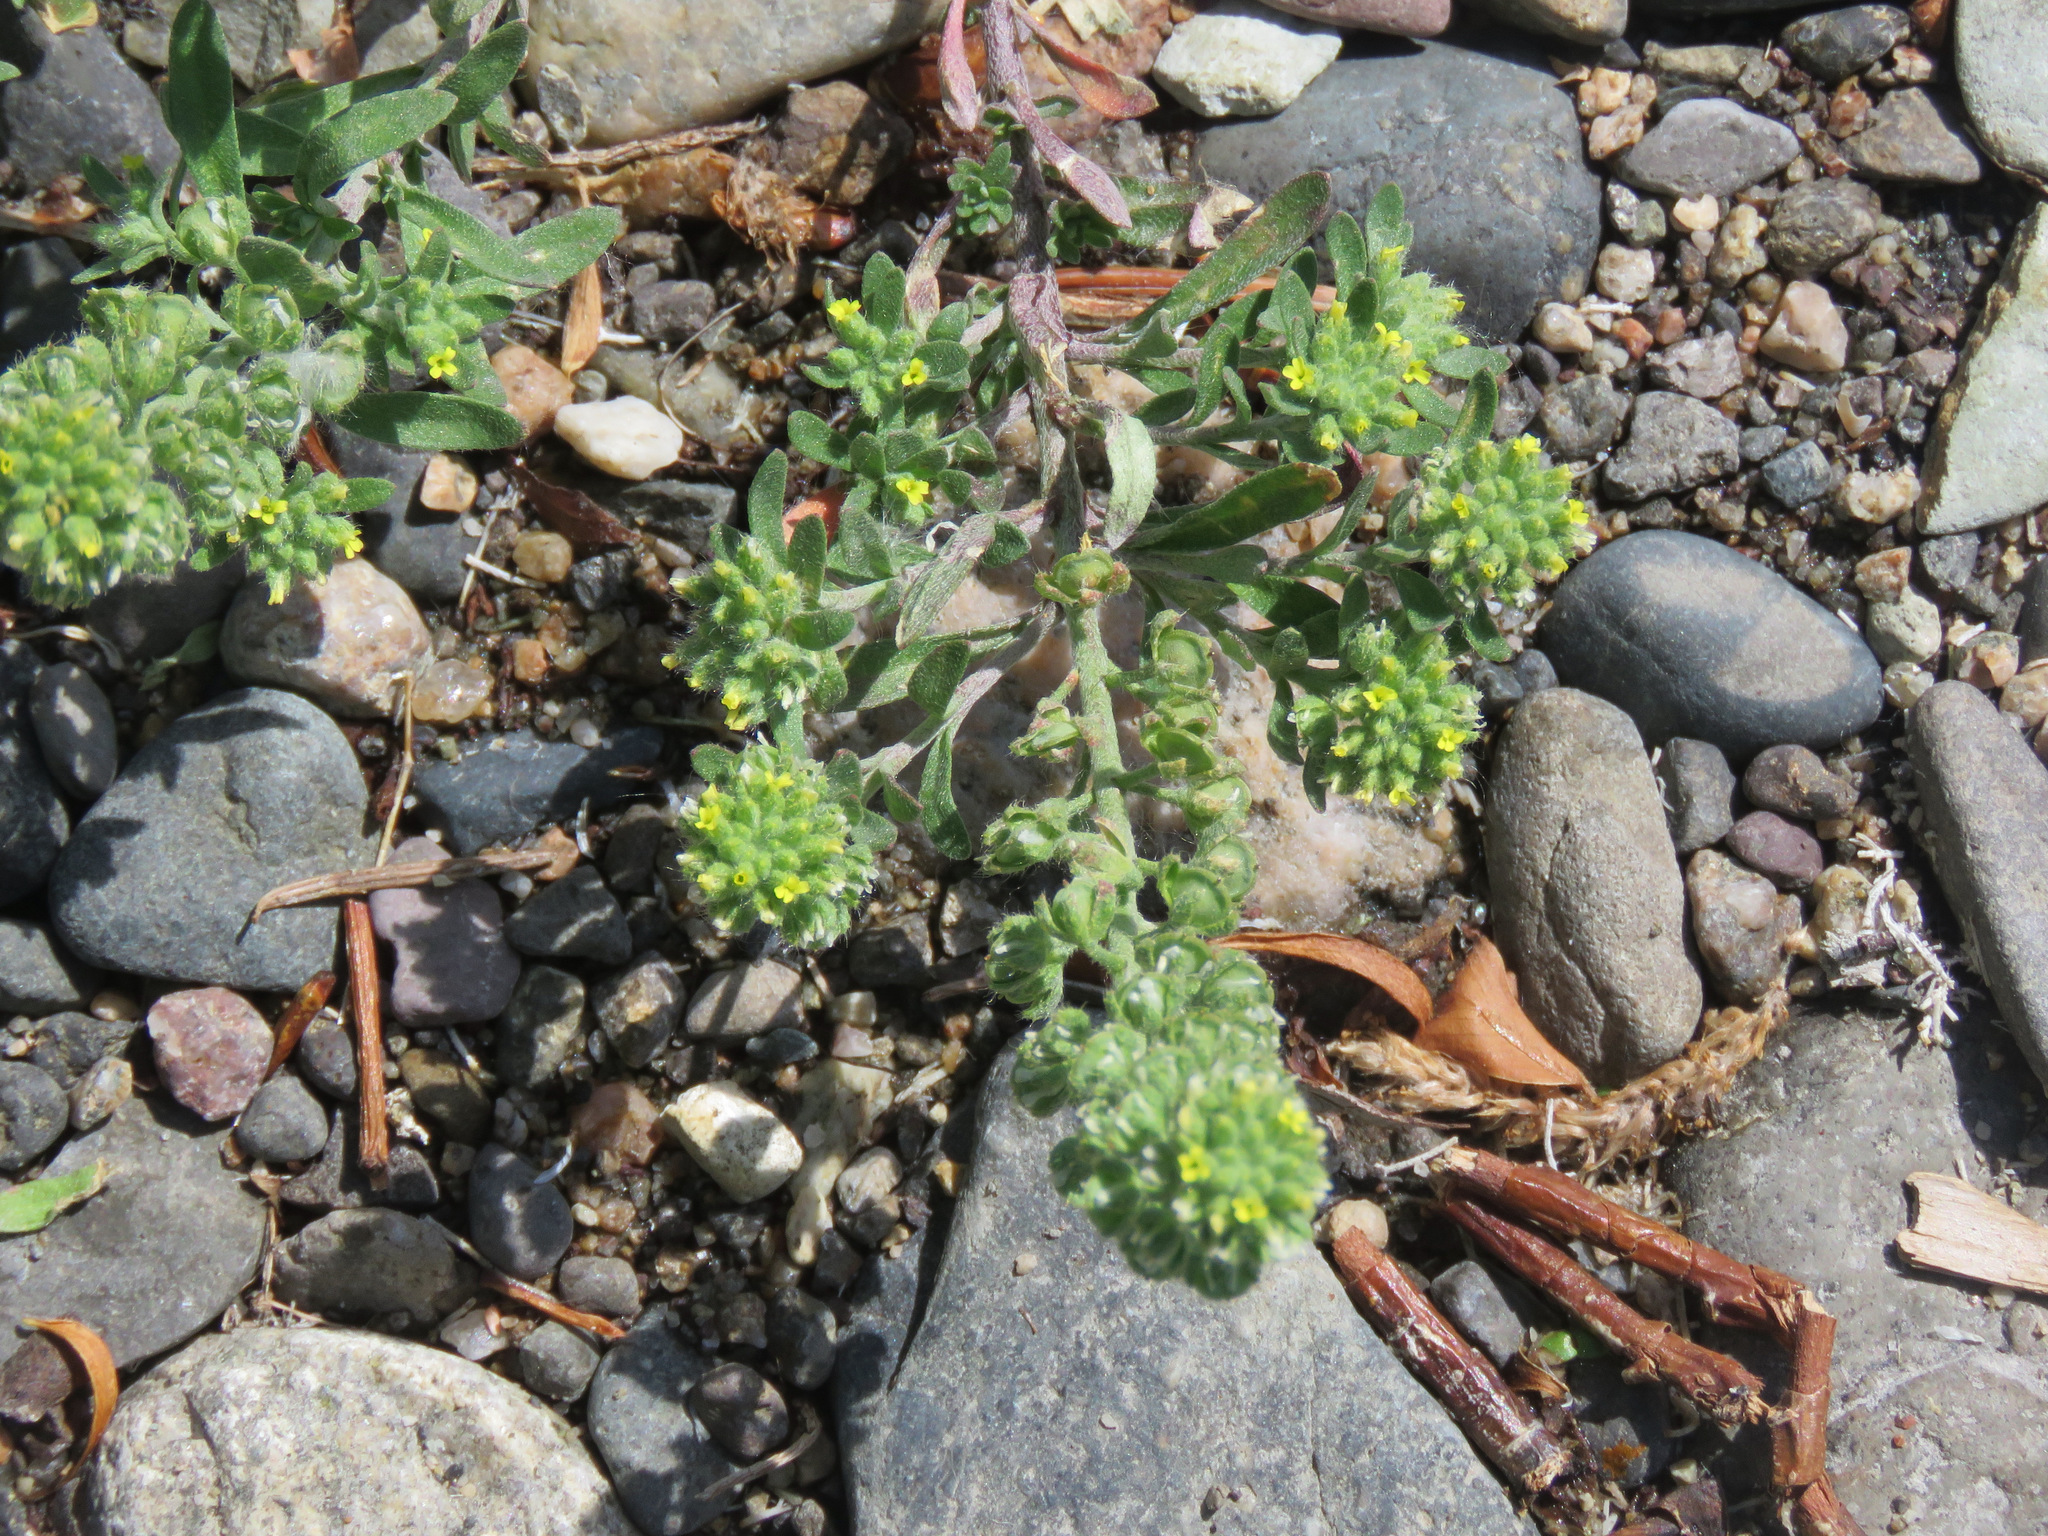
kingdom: Plantae
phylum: Tracheophyta
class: Magnoliopsida
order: Brassicales
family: Brassicaceae
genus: Alyssum
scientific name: Alyssum alyssoides
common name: Small alison
